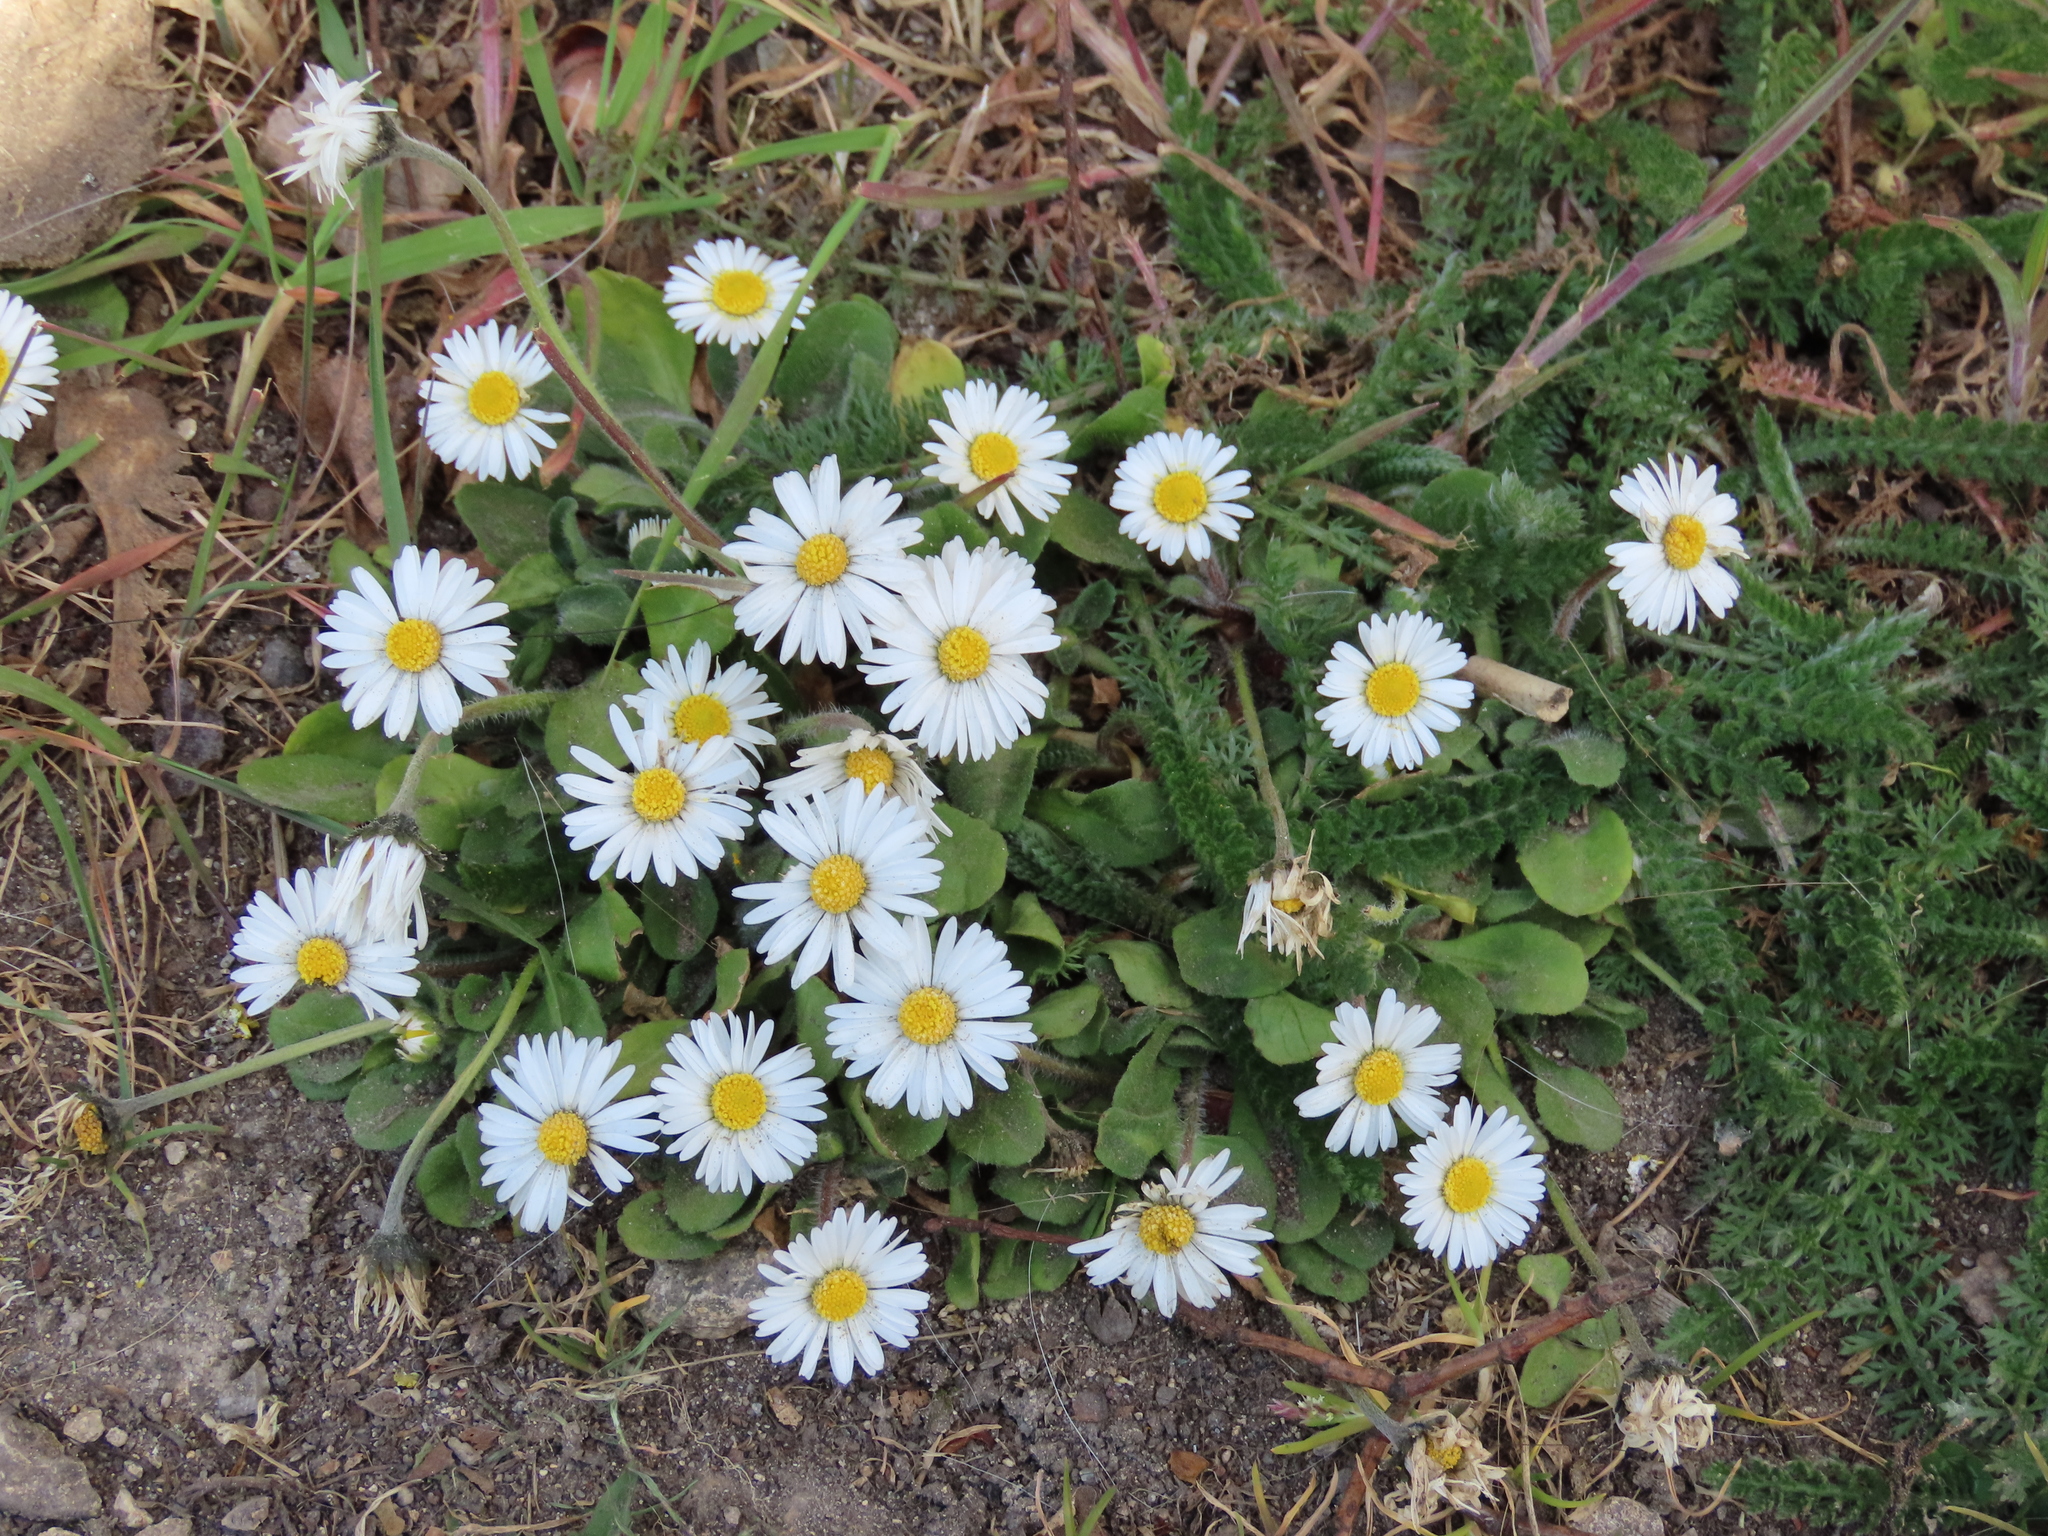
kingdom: Plantae
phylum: Tracheophyta
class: Magnoliopsida
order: Asterales
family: Asteraceae
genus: Bellis
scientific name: Bellis perennis
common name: Lawndaisy
